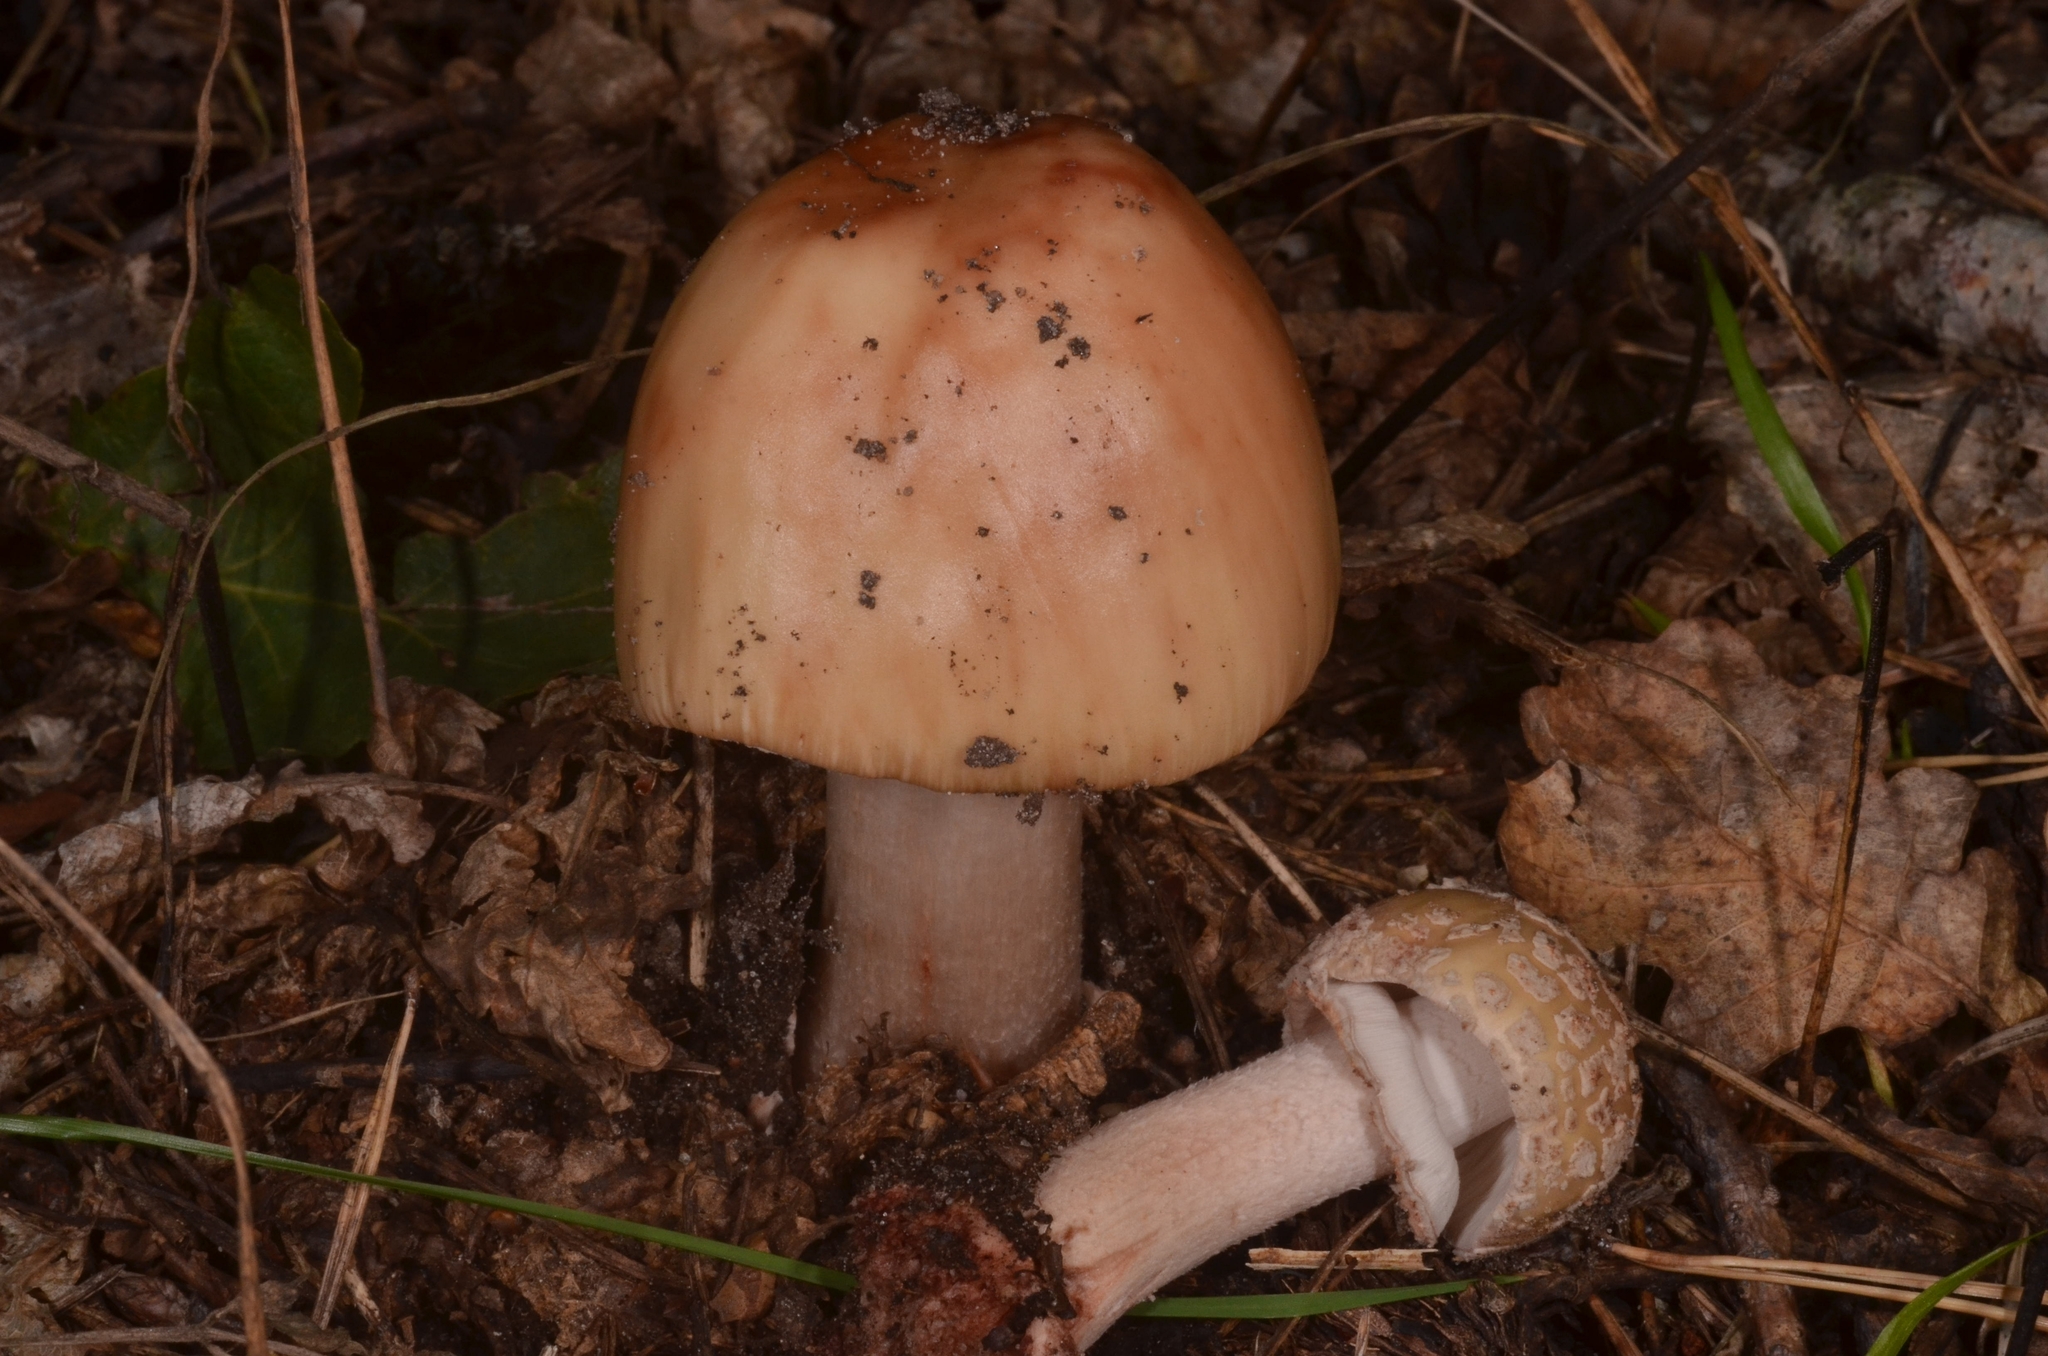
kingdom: Fungi
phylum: Basidiomycota
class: Agaricomycetes
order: Agaricales
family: Amanitaceae
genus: Amanita
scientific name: Amanita rubescens
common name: Blusher
